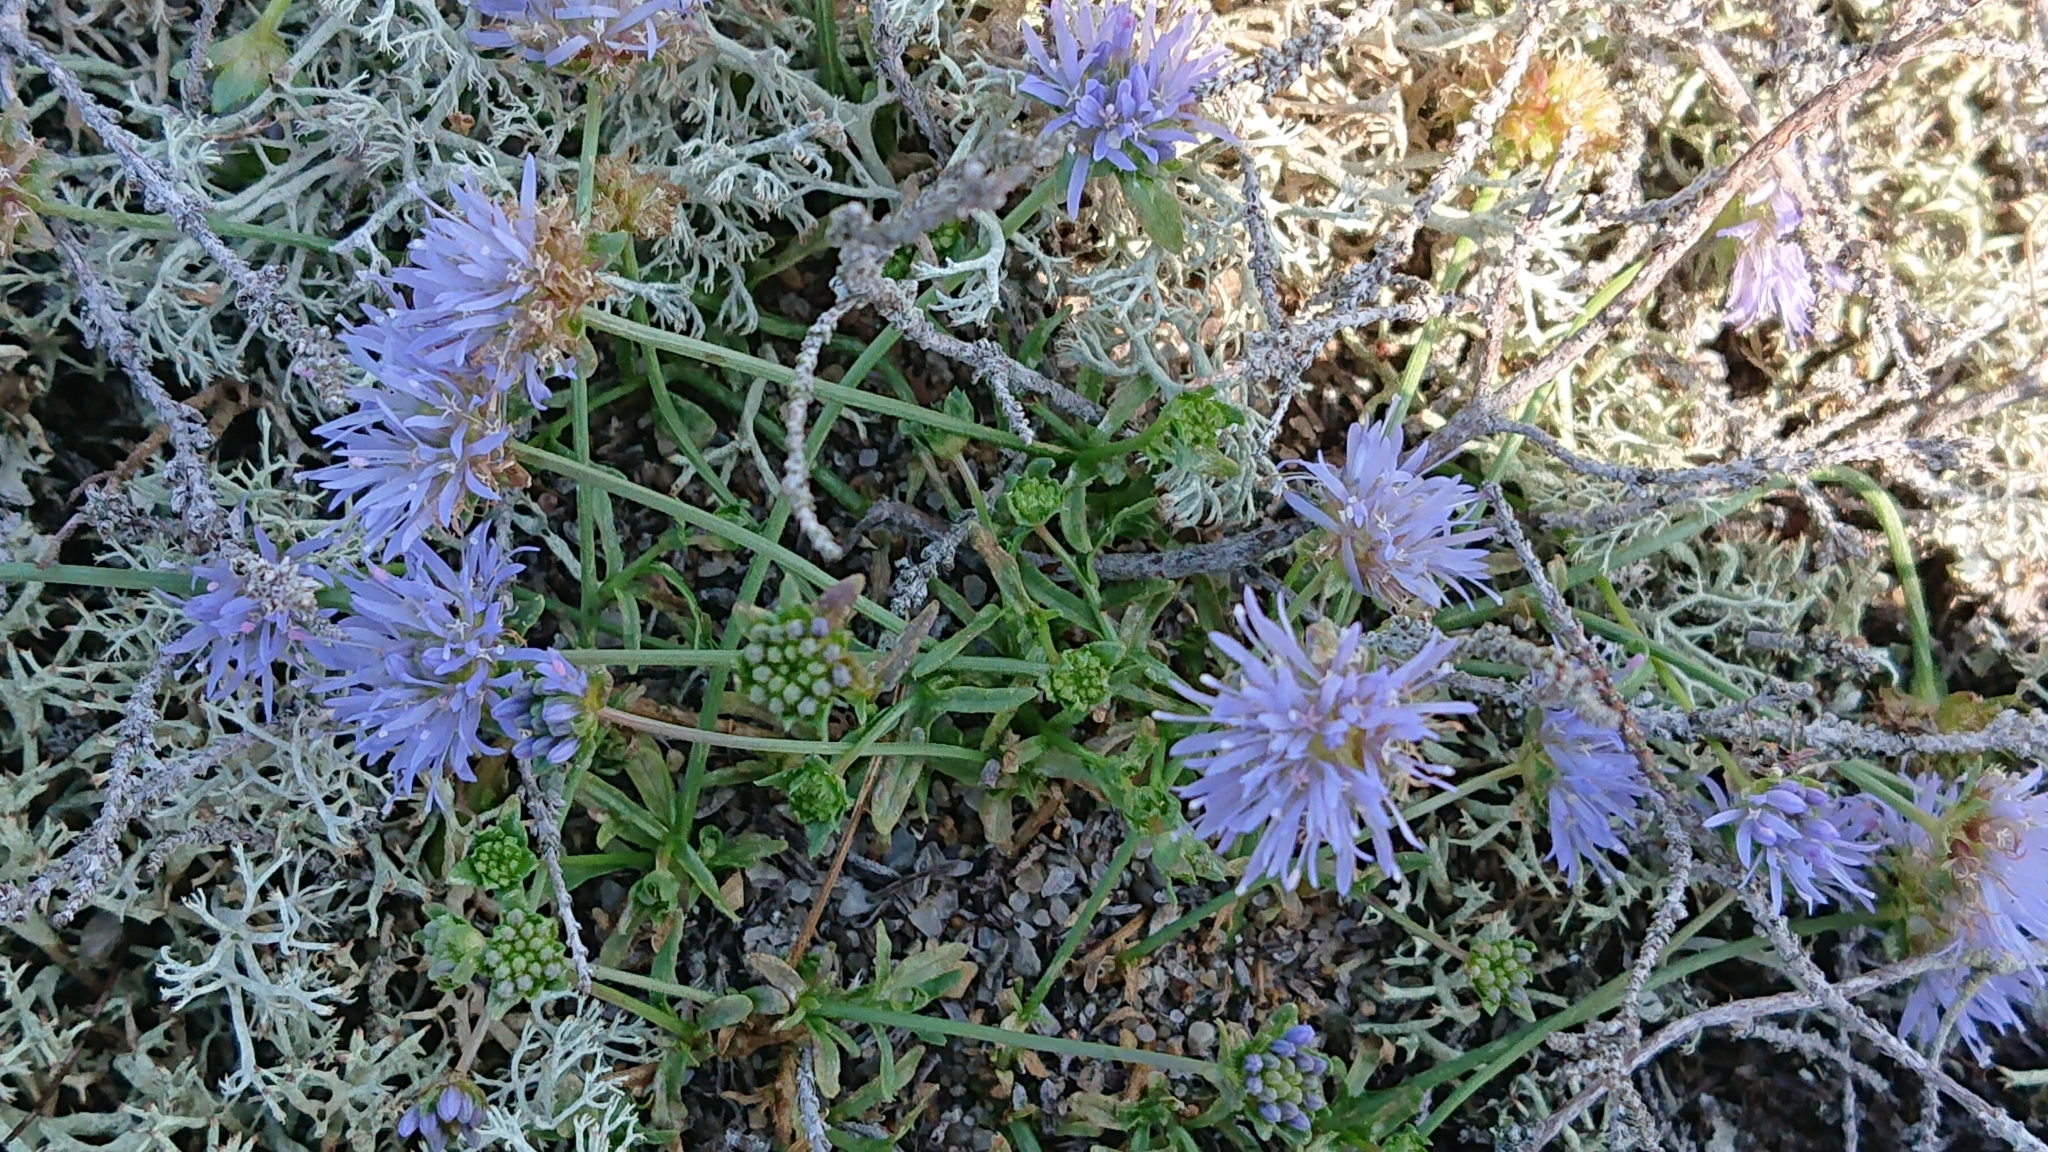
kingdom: Plantae
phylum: Tracheophyta
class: Magnoliopsida
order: Asterales
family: Campanulaceae
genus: Jasione
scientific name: Jasione montana
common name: Sheep's-bit
